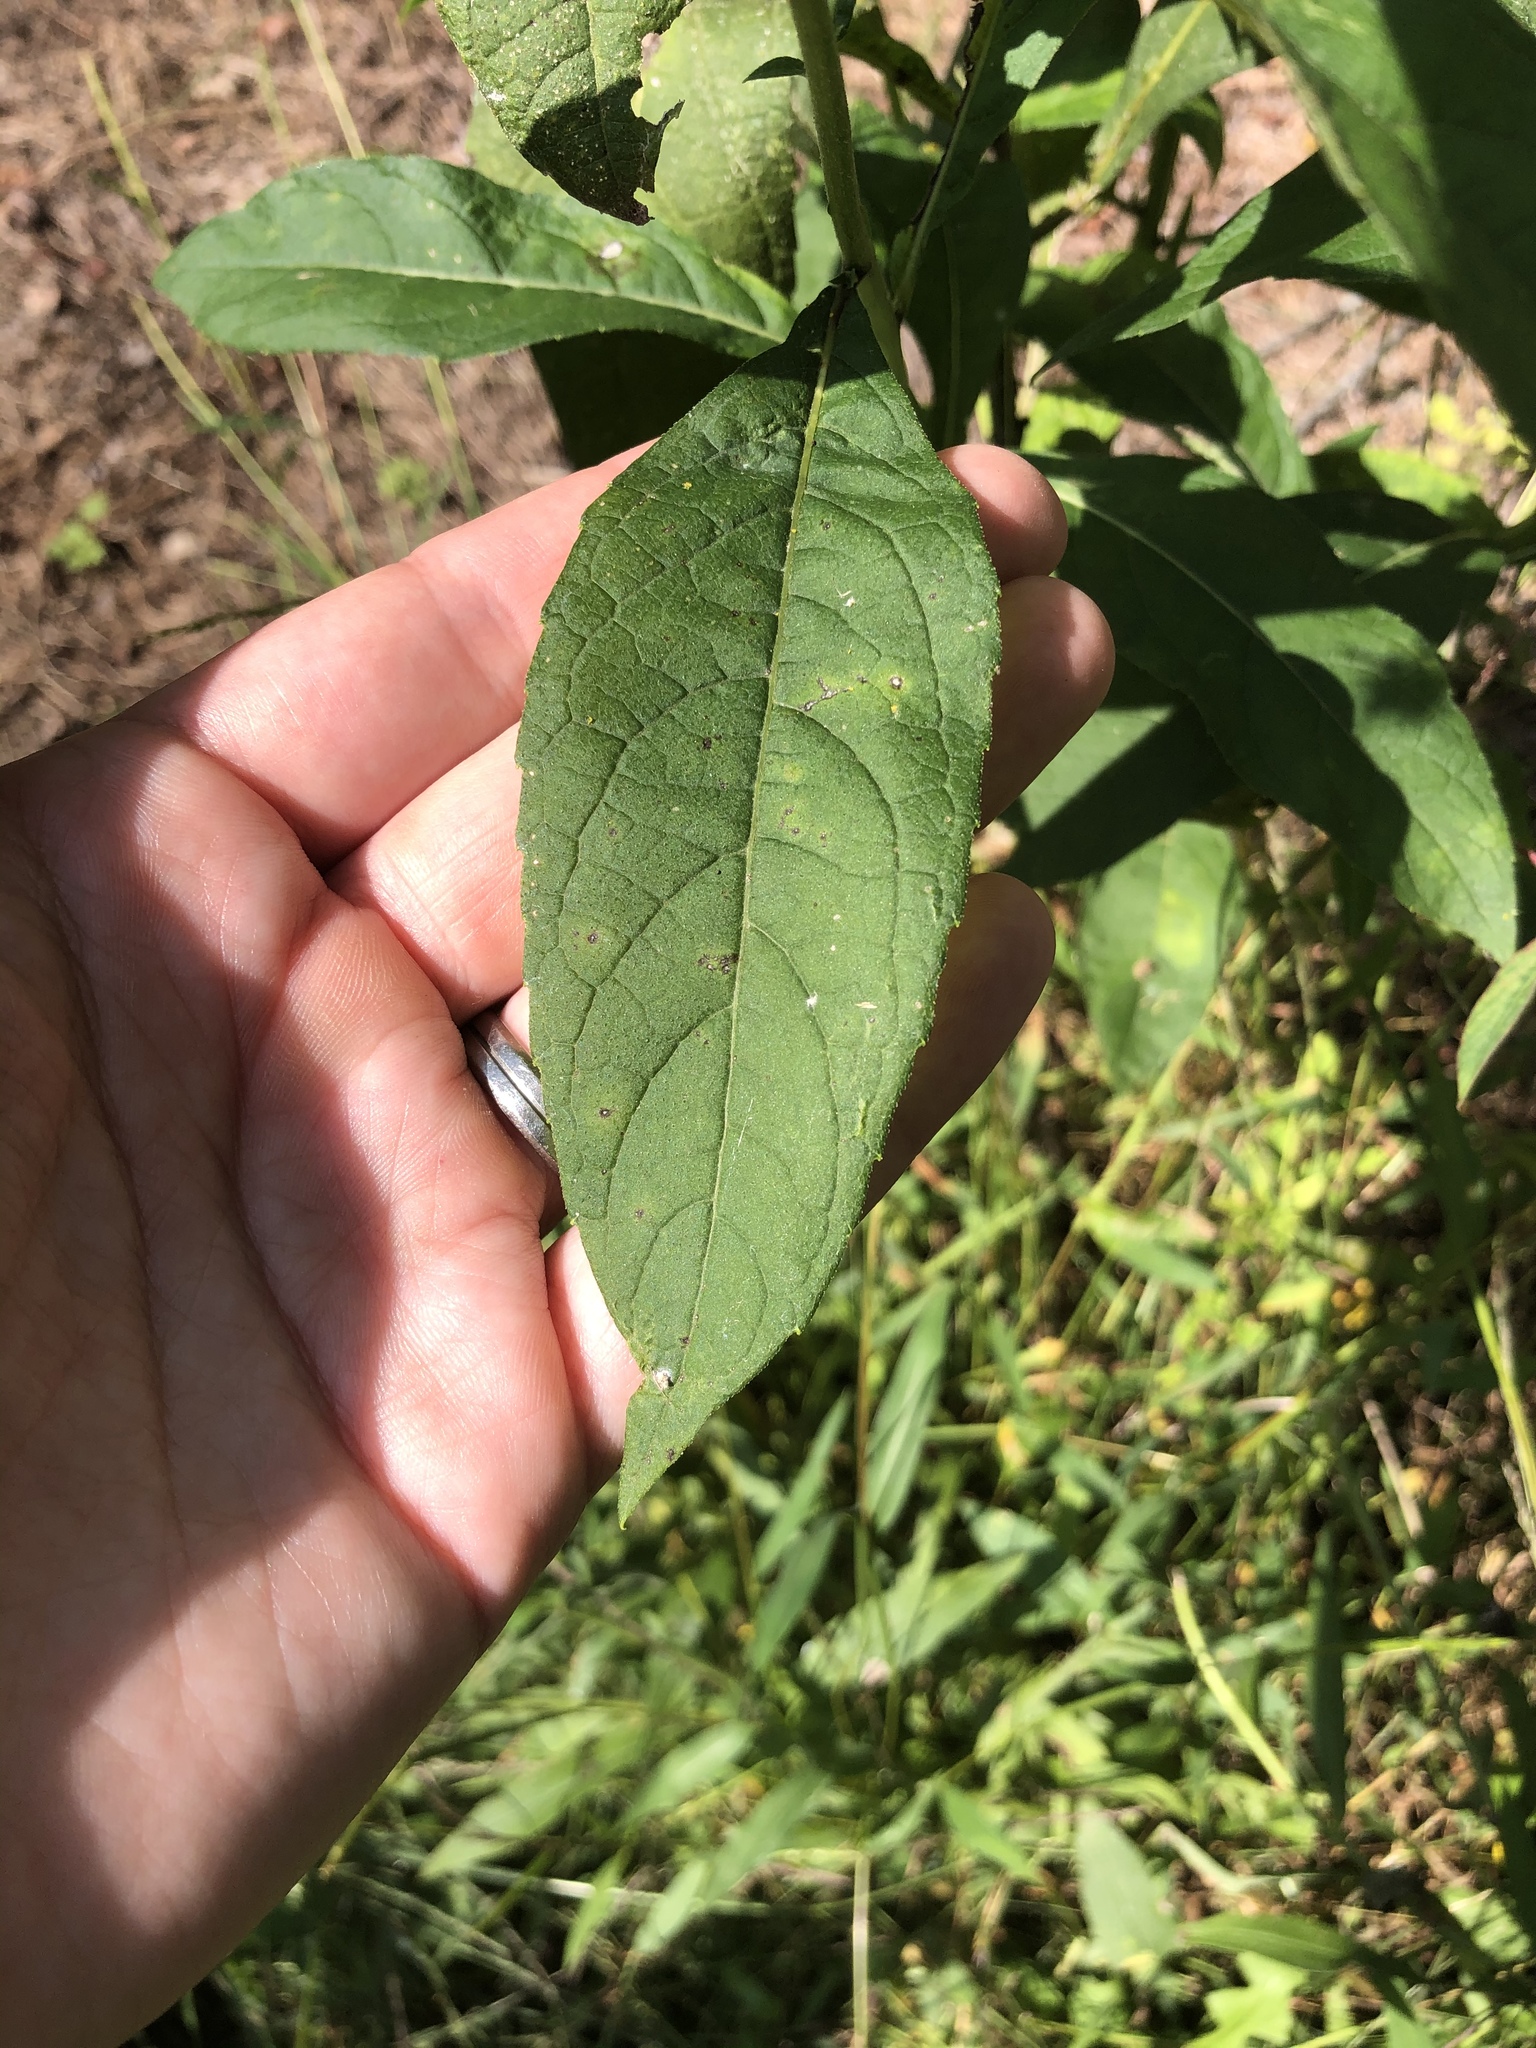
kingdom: Plantae
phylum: Tracheophyta
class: Magnoliopsida
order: Asterales
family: Asteraceae
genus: Verbesina
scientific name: Verbesina alternifolia
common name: Wingstem
